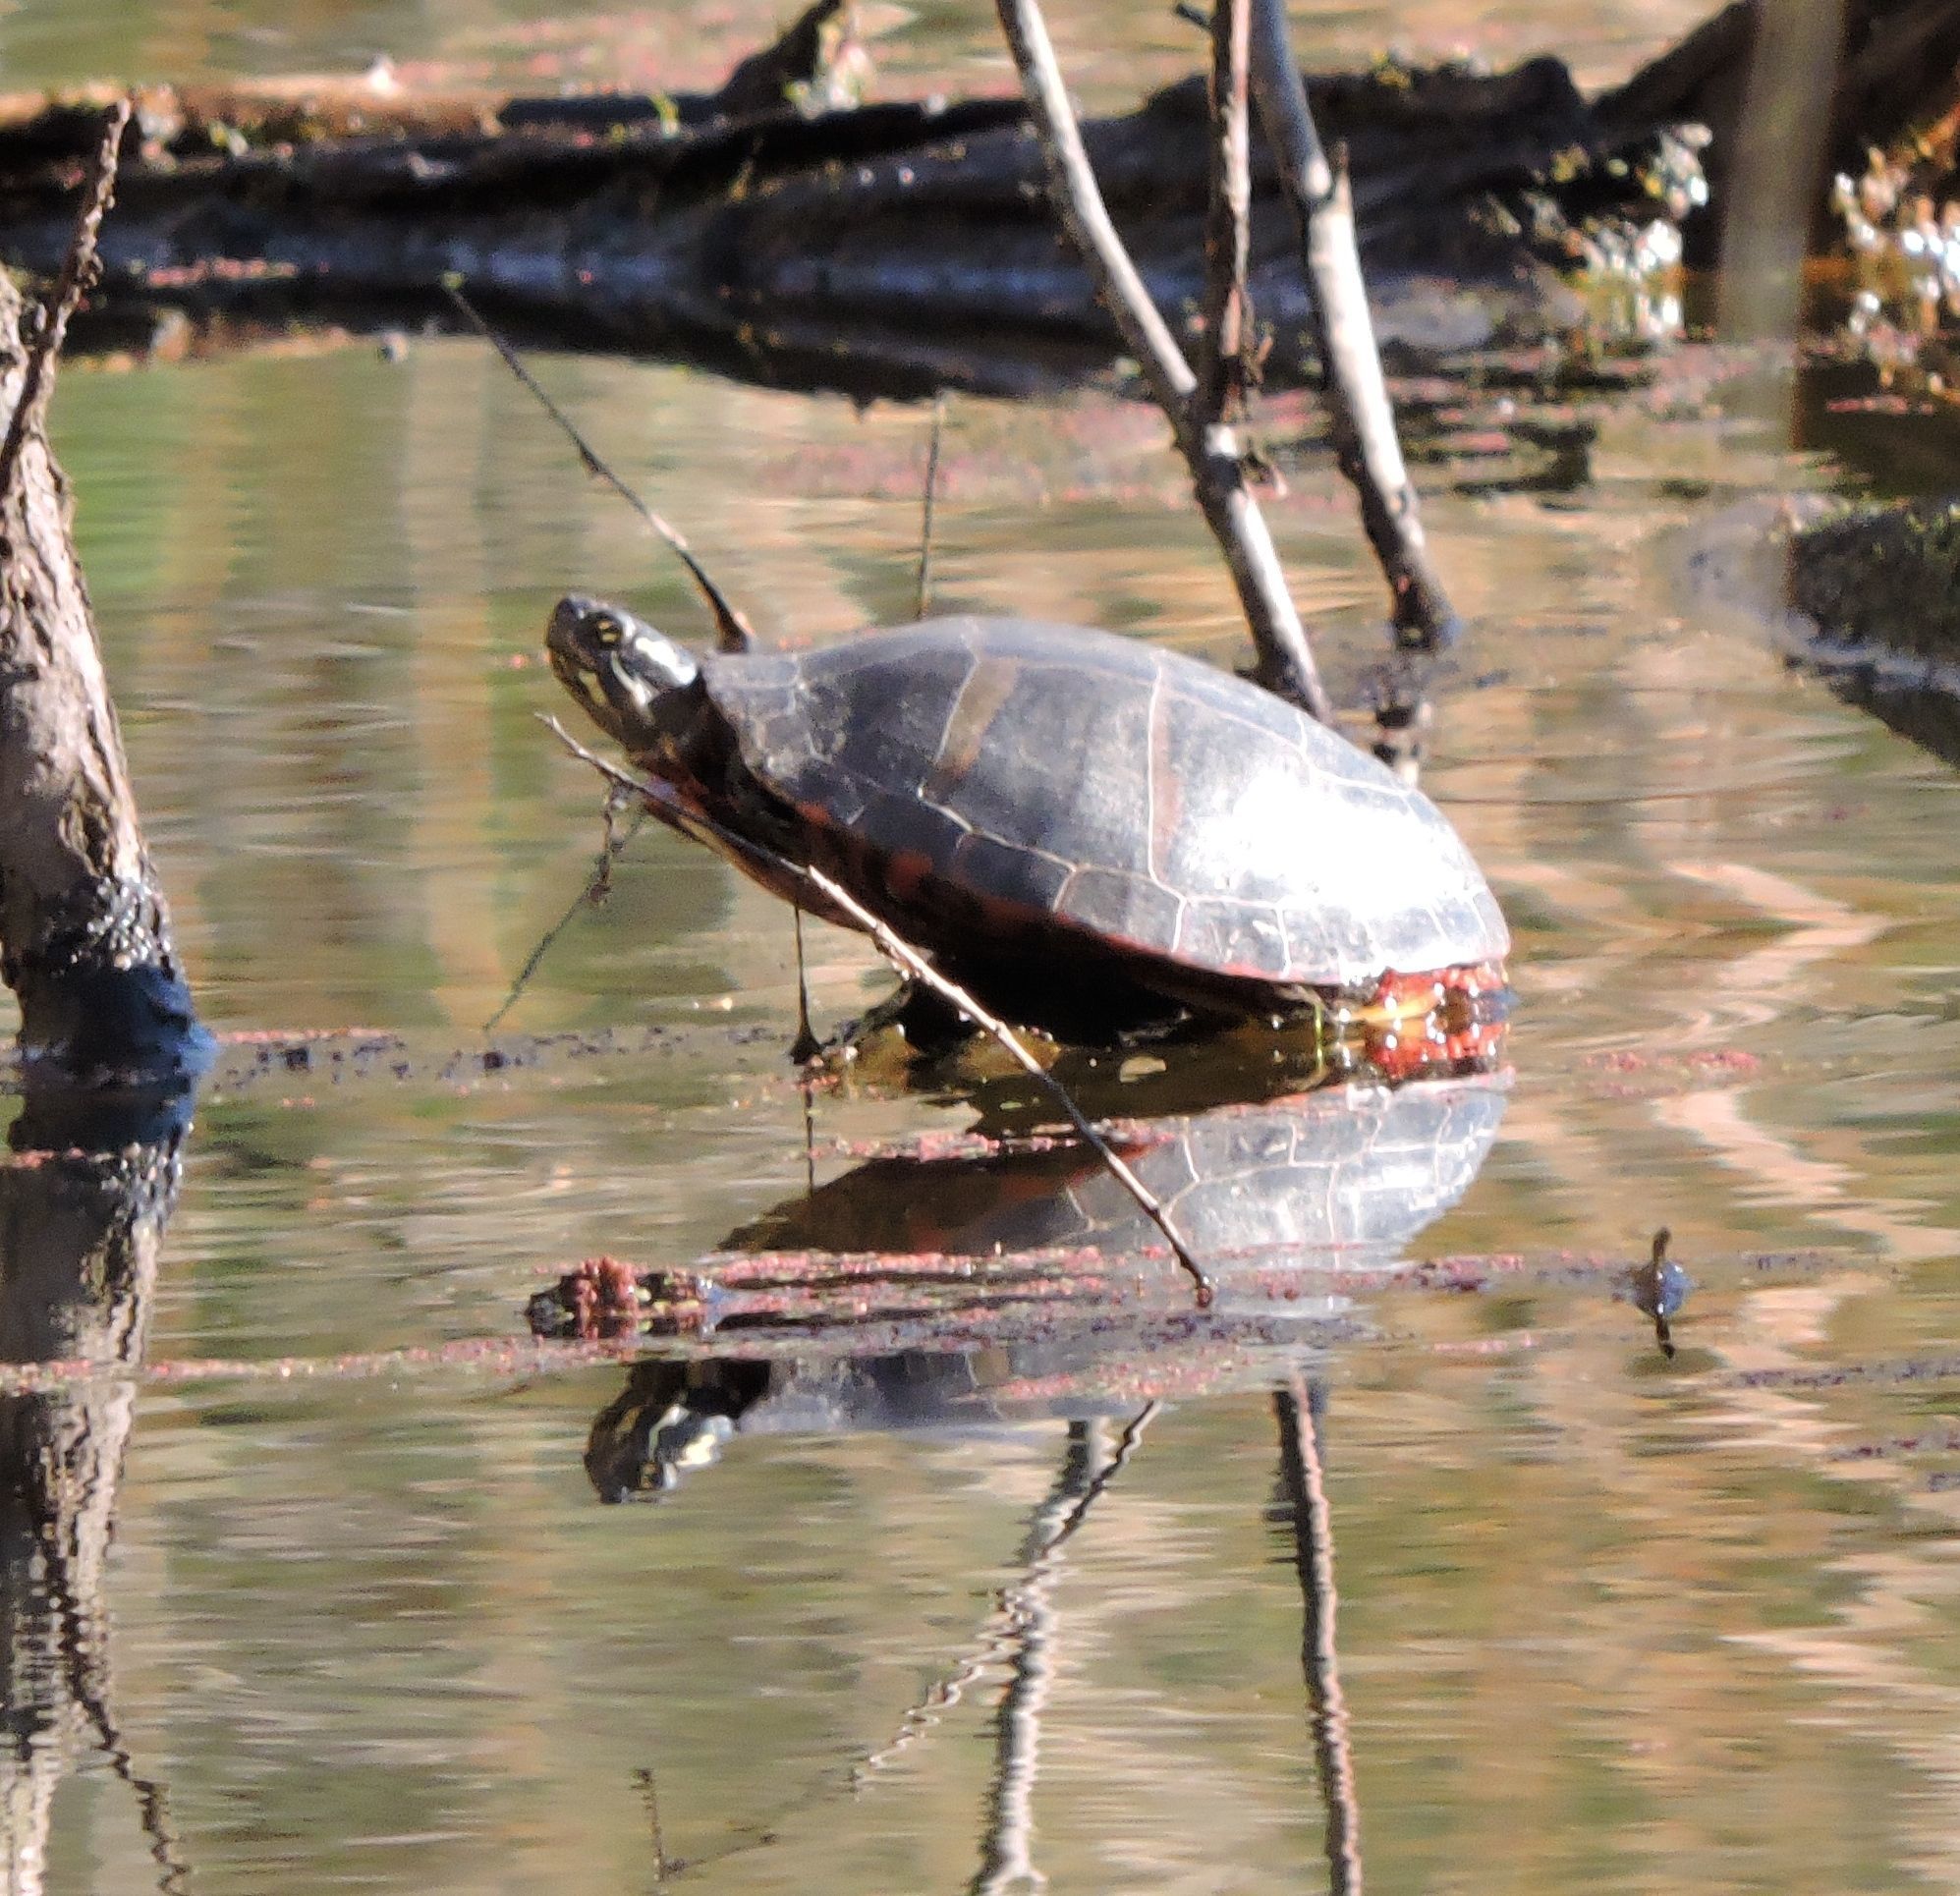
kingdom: Animalia
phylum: Chordata
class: Testudines
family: Emydidae
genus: Chrysemys
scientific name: Chrysemys picta
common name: Painted turtle
